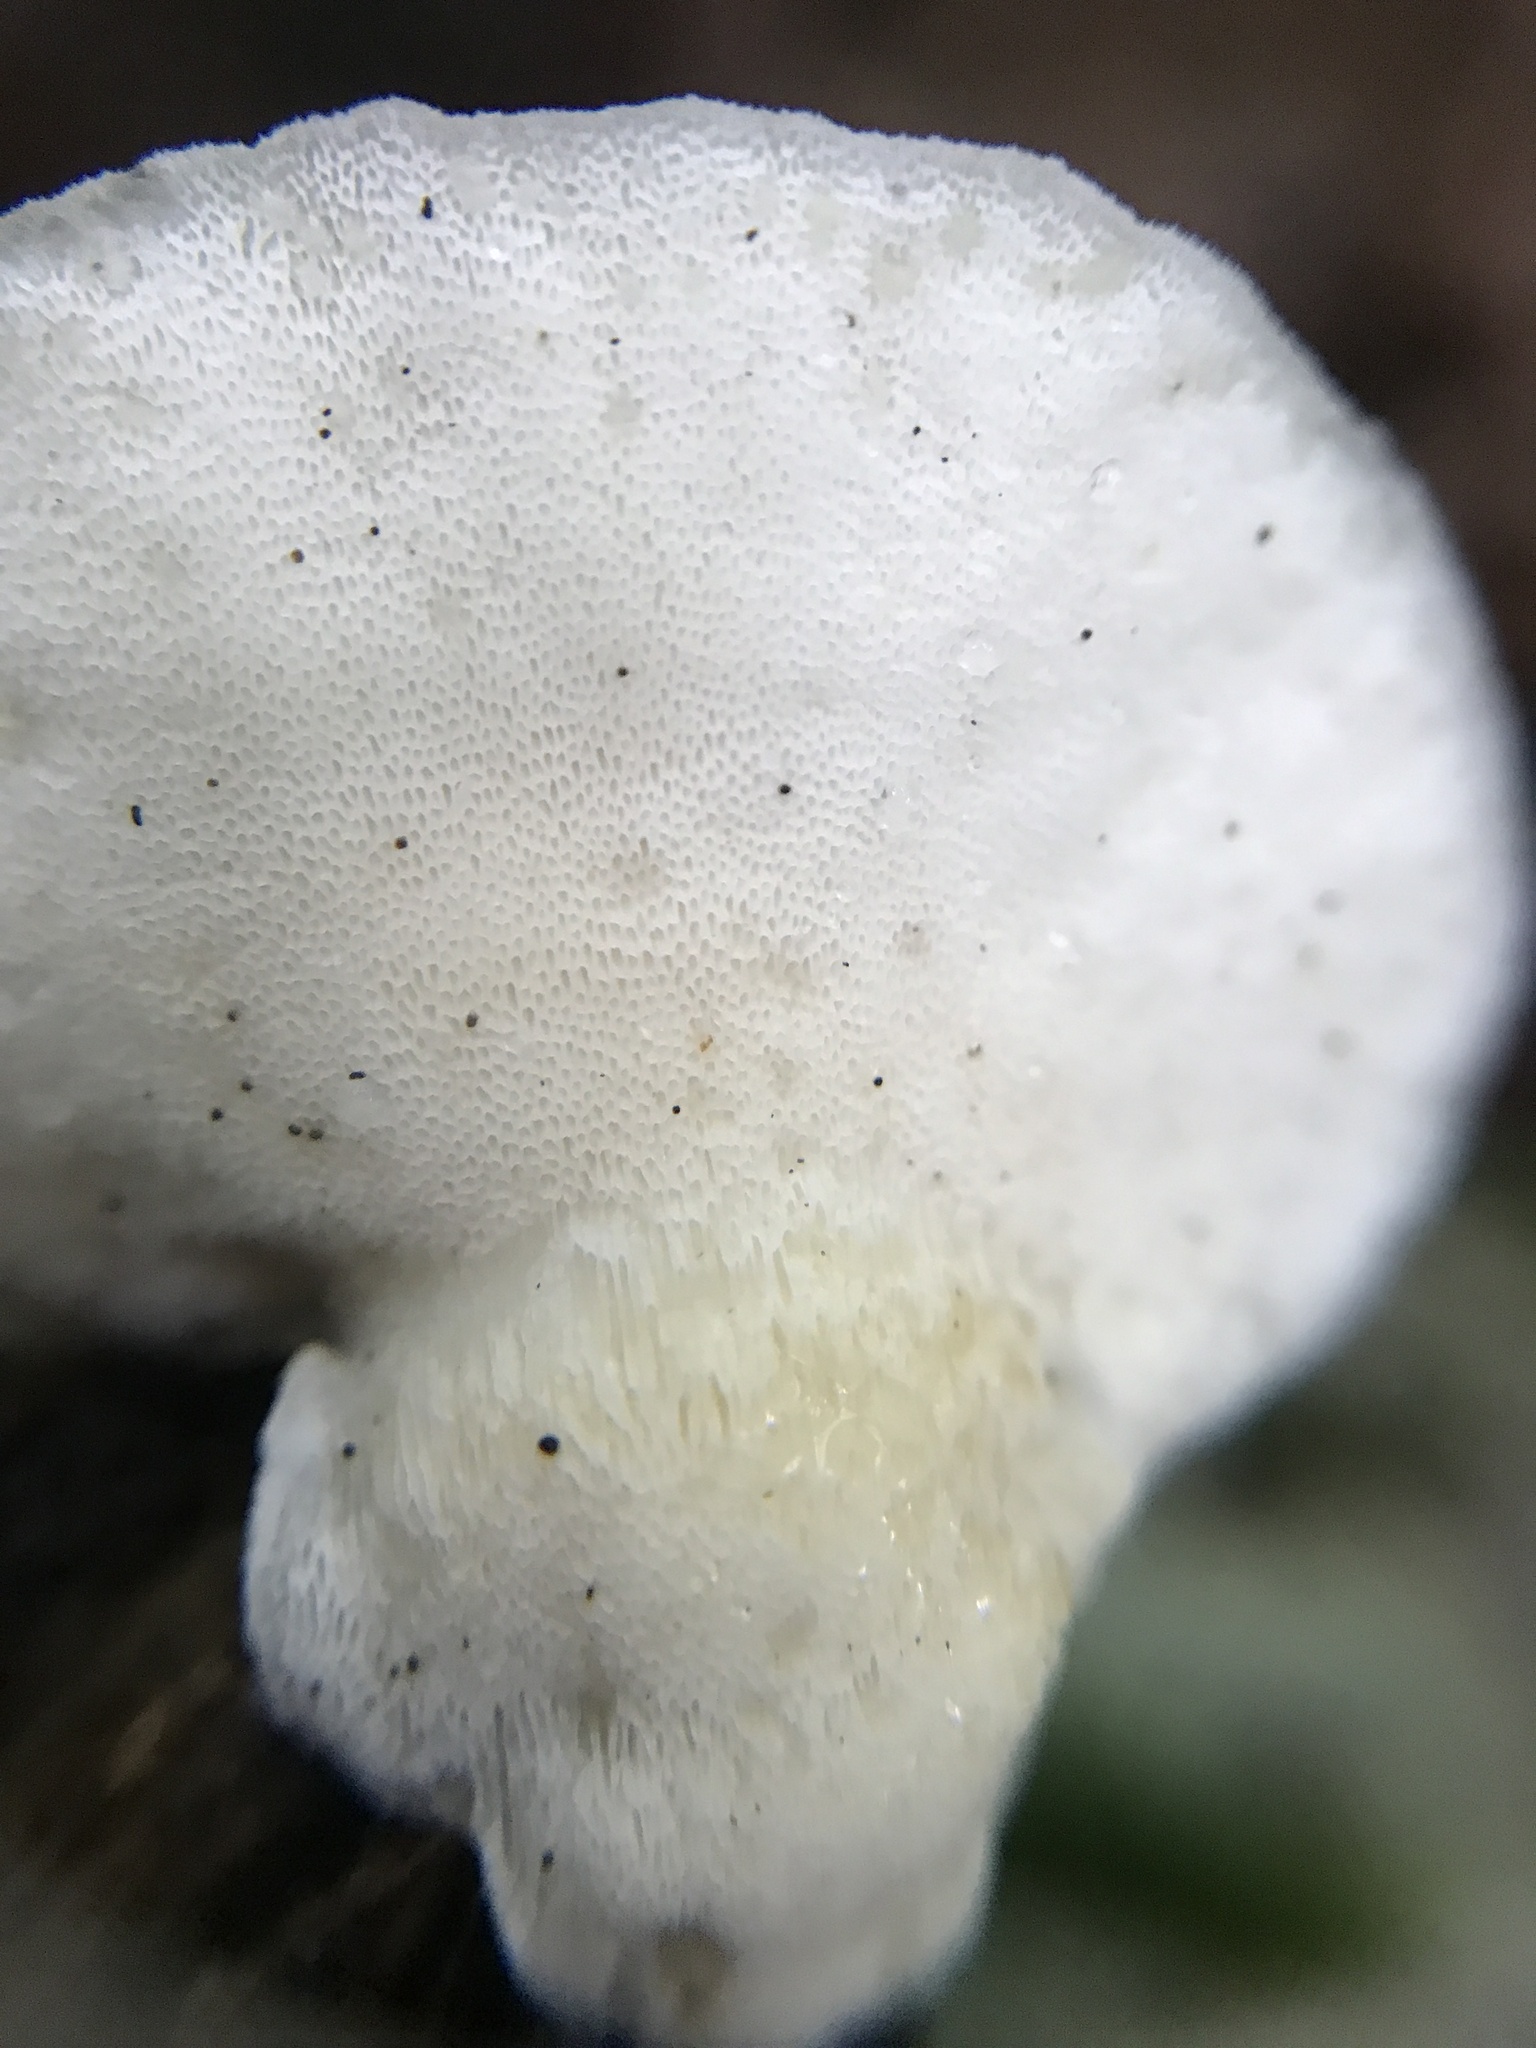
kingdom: Fungi
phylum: Basidiomycota
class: Agaricomycetes
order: Polyporales
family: Incrustoporiaceae
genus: Tyromyces
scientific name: Tyromyces chioneus
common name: White cheese polypore
